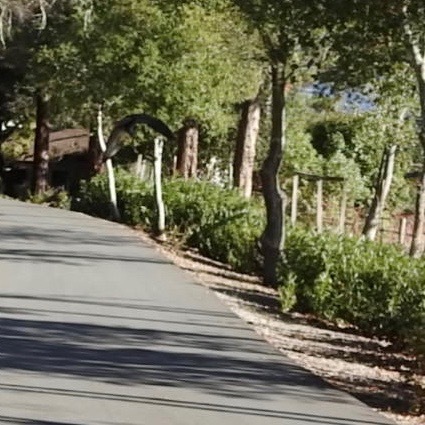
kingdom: Animalia
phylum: Chordata
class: Aves
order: Accipitriformes
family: Accipitridae
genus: Buteo
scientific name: Buteo jamaicensis
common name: Red-tailed hawk
